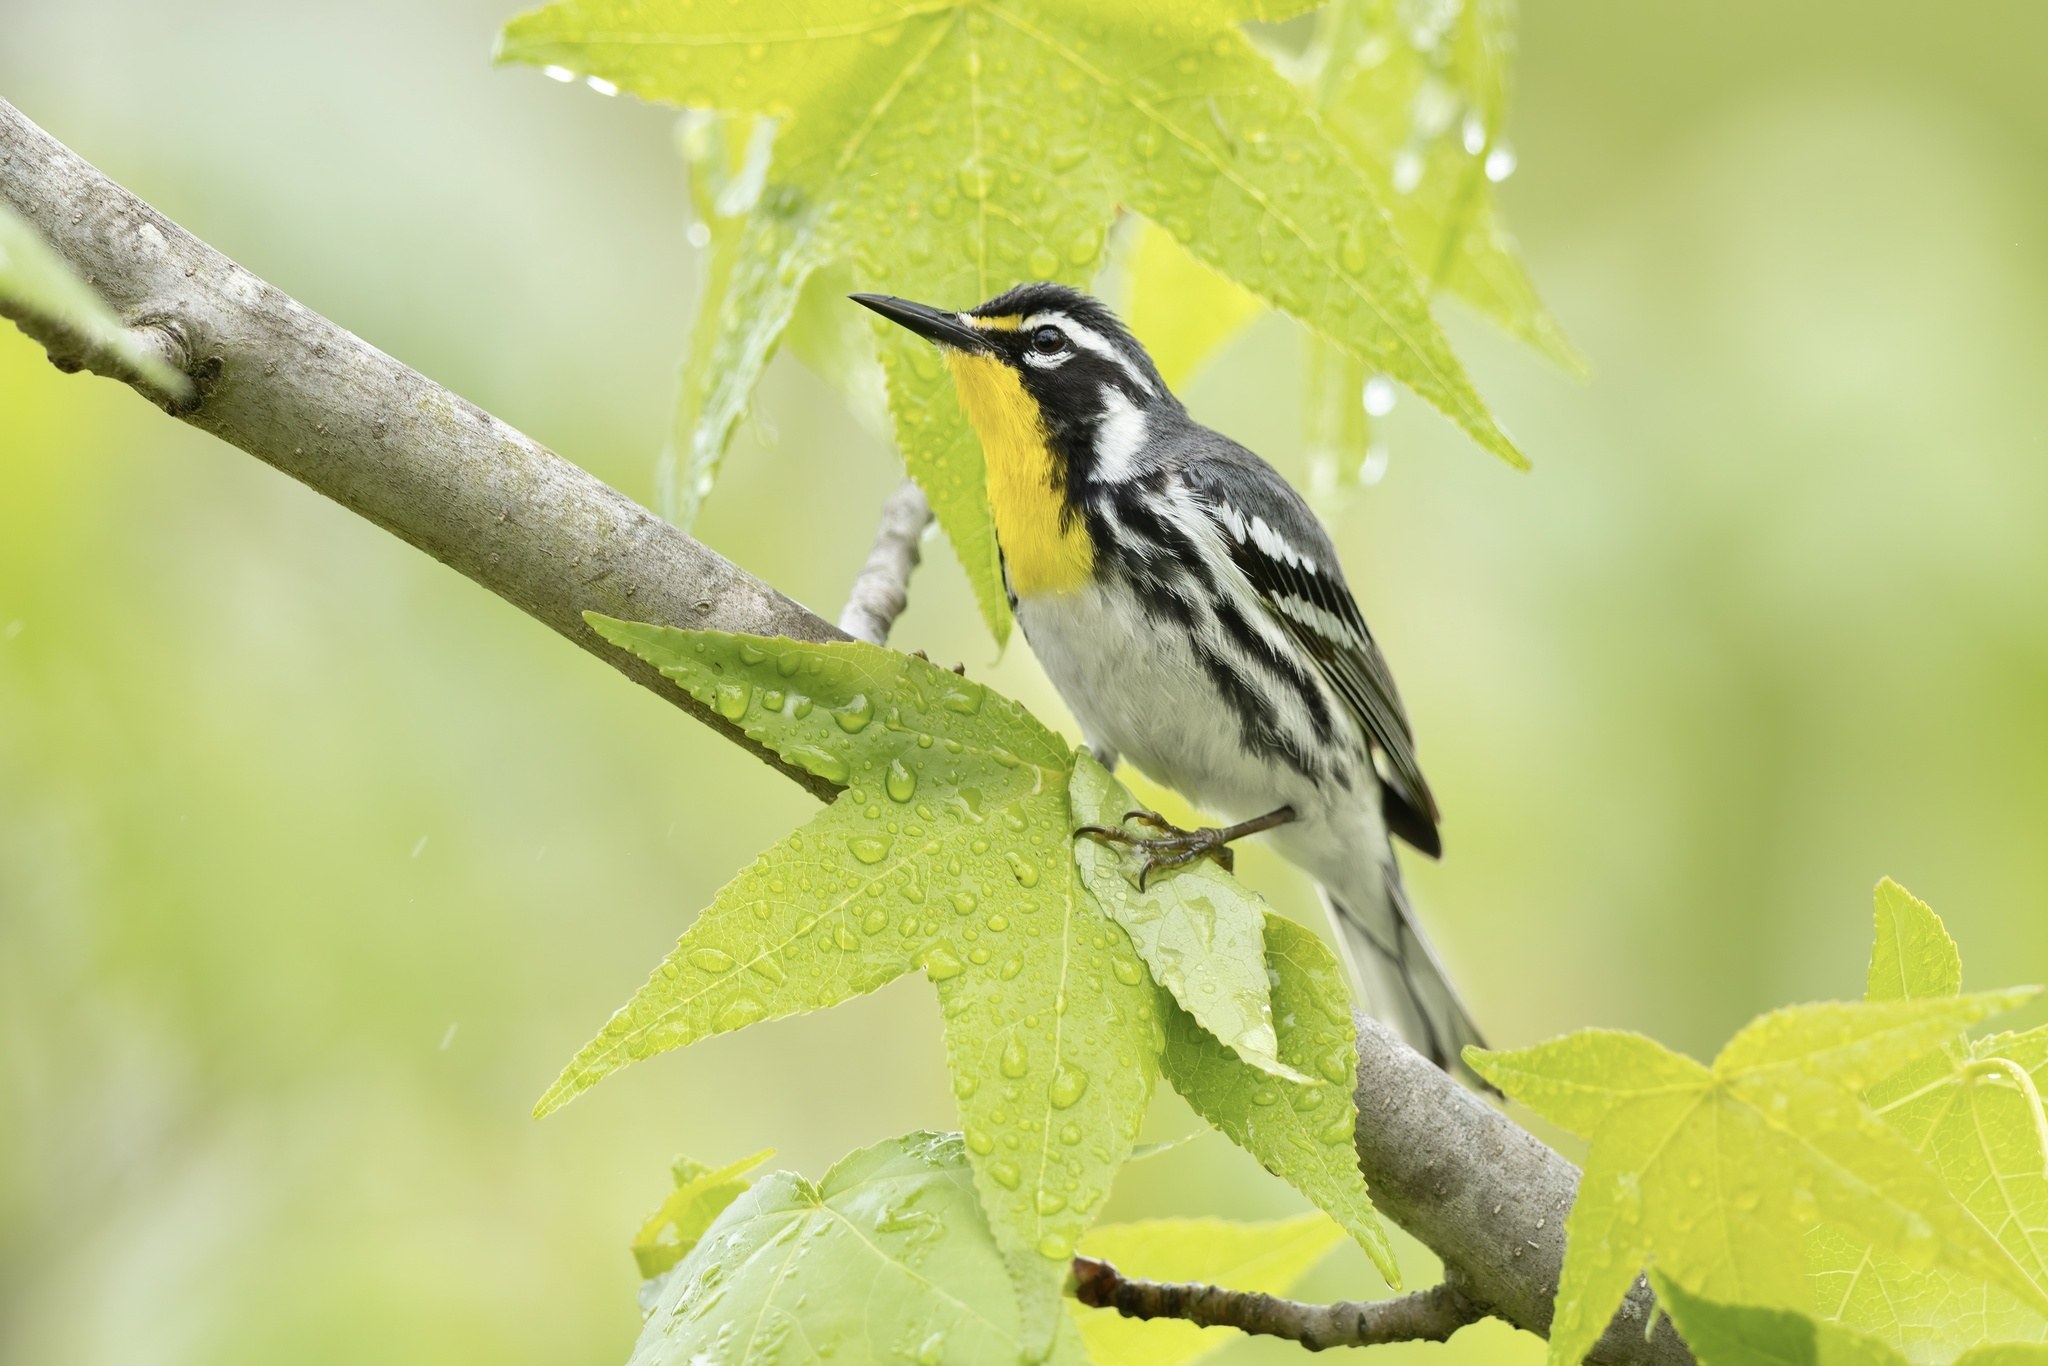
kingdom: Animalia
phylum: Chordata
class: Aves
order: Passeriformes
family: Parulidae
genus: Setophaga
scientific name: Setophaga dominica
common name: Yellow-throated warbler
